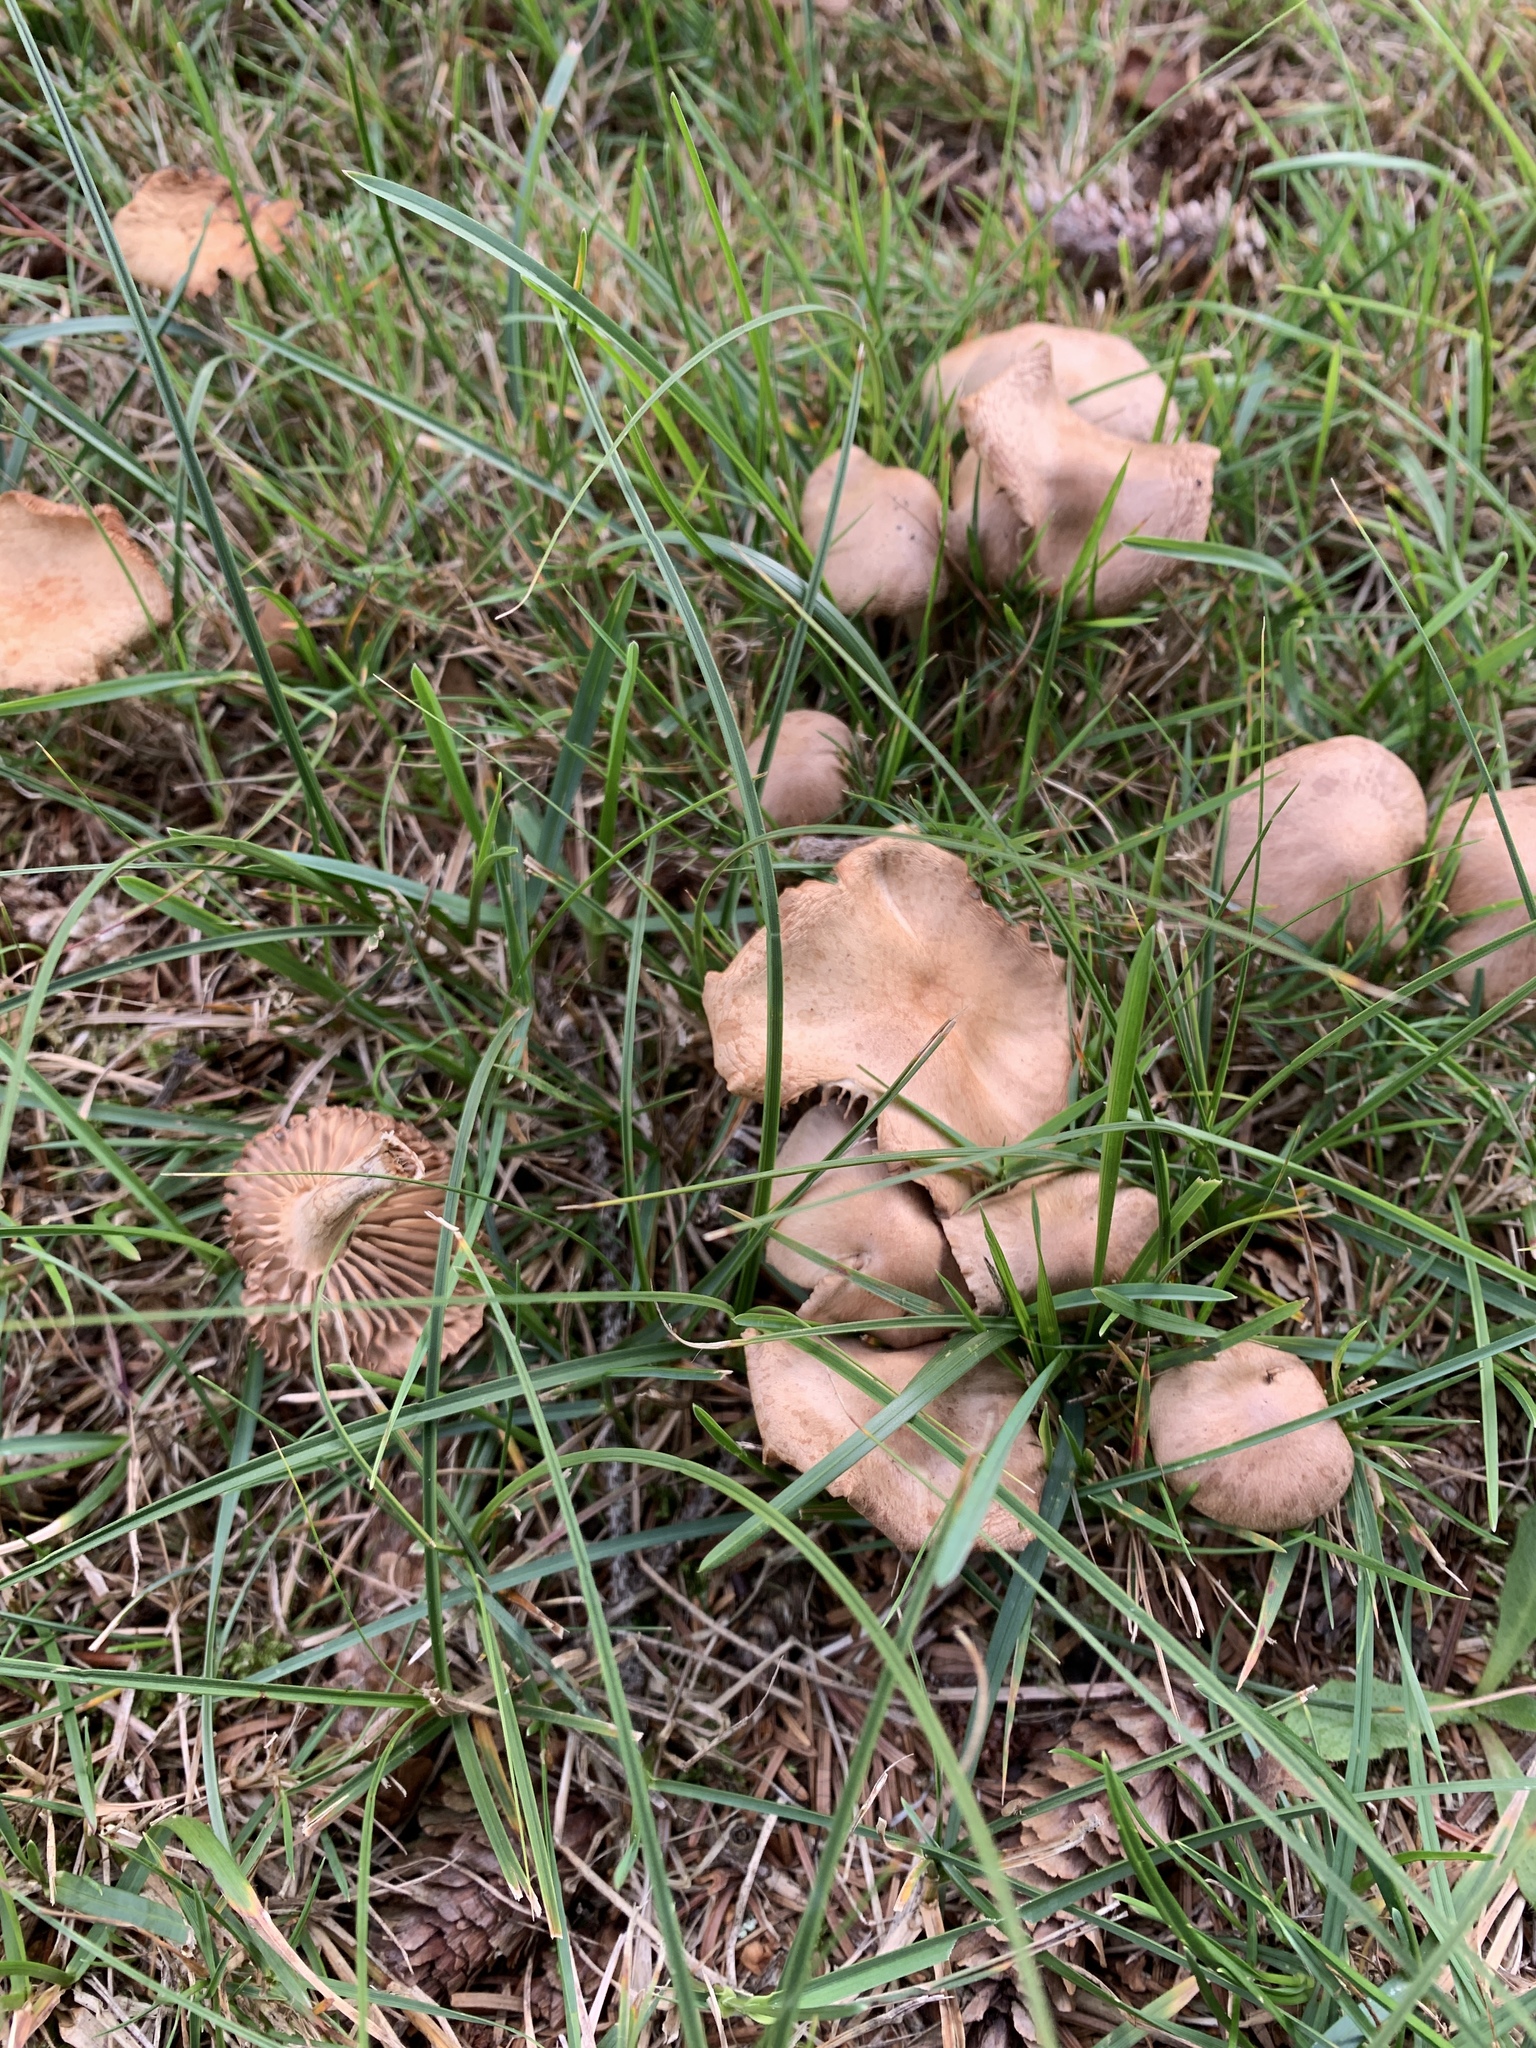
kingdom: Fungi
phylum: Basidiomycota
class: Agaricomycetes
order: Agaricales
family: Marasmiaceae
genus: Marasmius
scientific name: Marasmius oreades
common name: Fairy ring champignon
